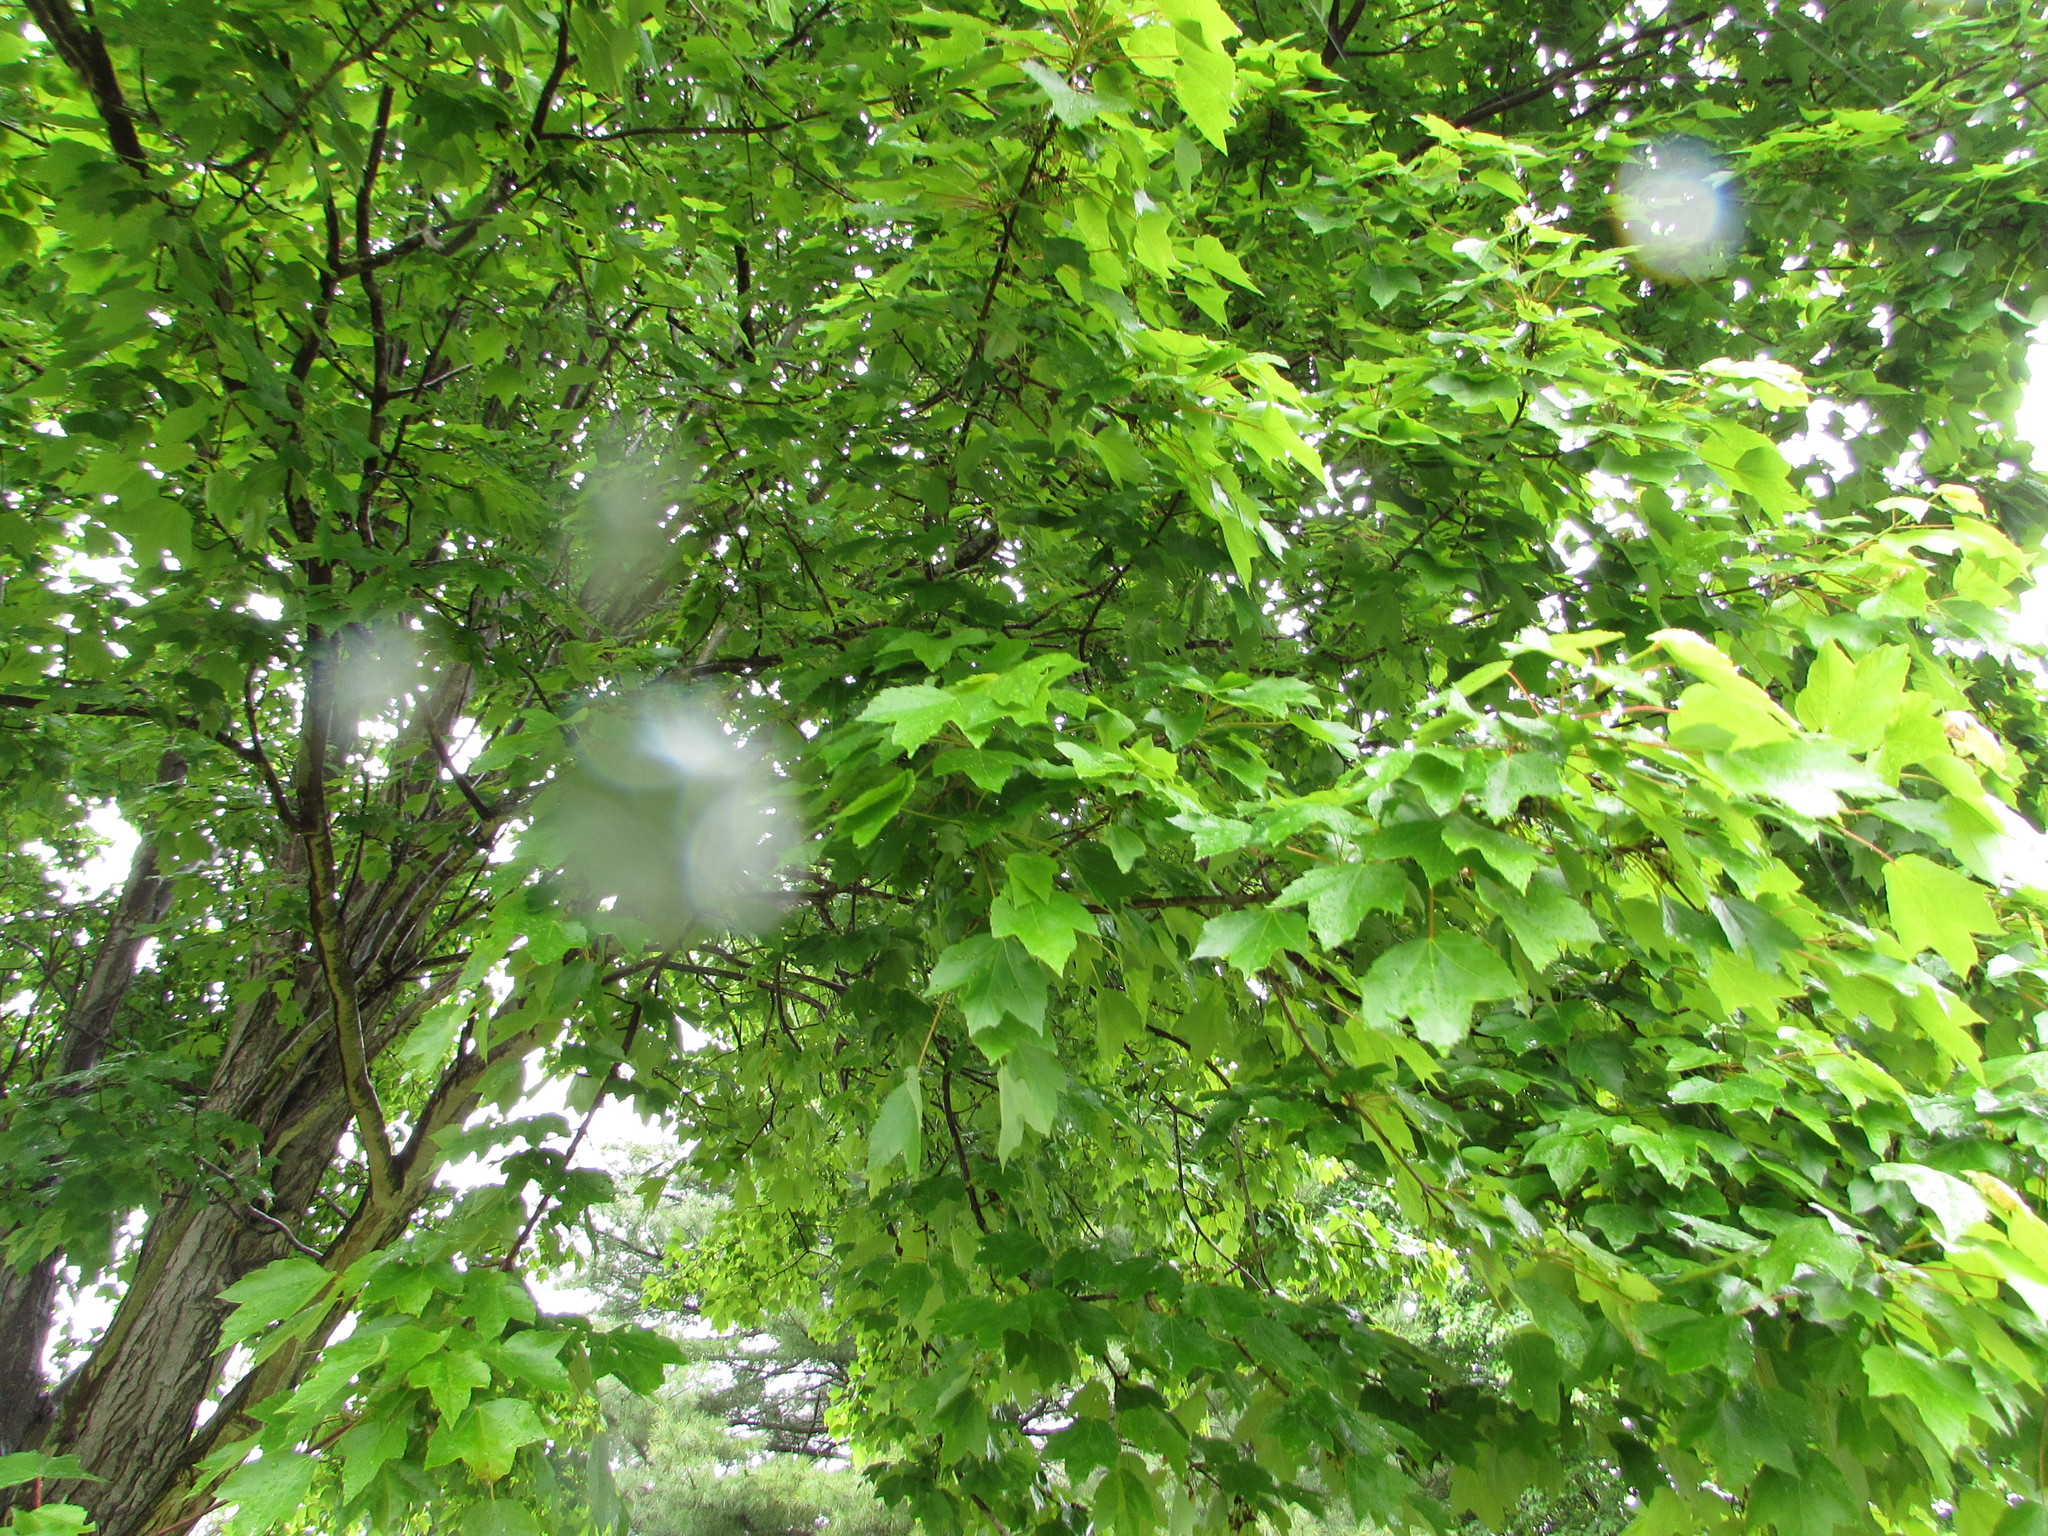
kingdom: Plantae
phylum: Tracheophyta
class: Magnoliopsida
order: Sapindales
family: Sapindaceae
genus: Acer
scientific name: Acer rubrum
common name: Red maple
